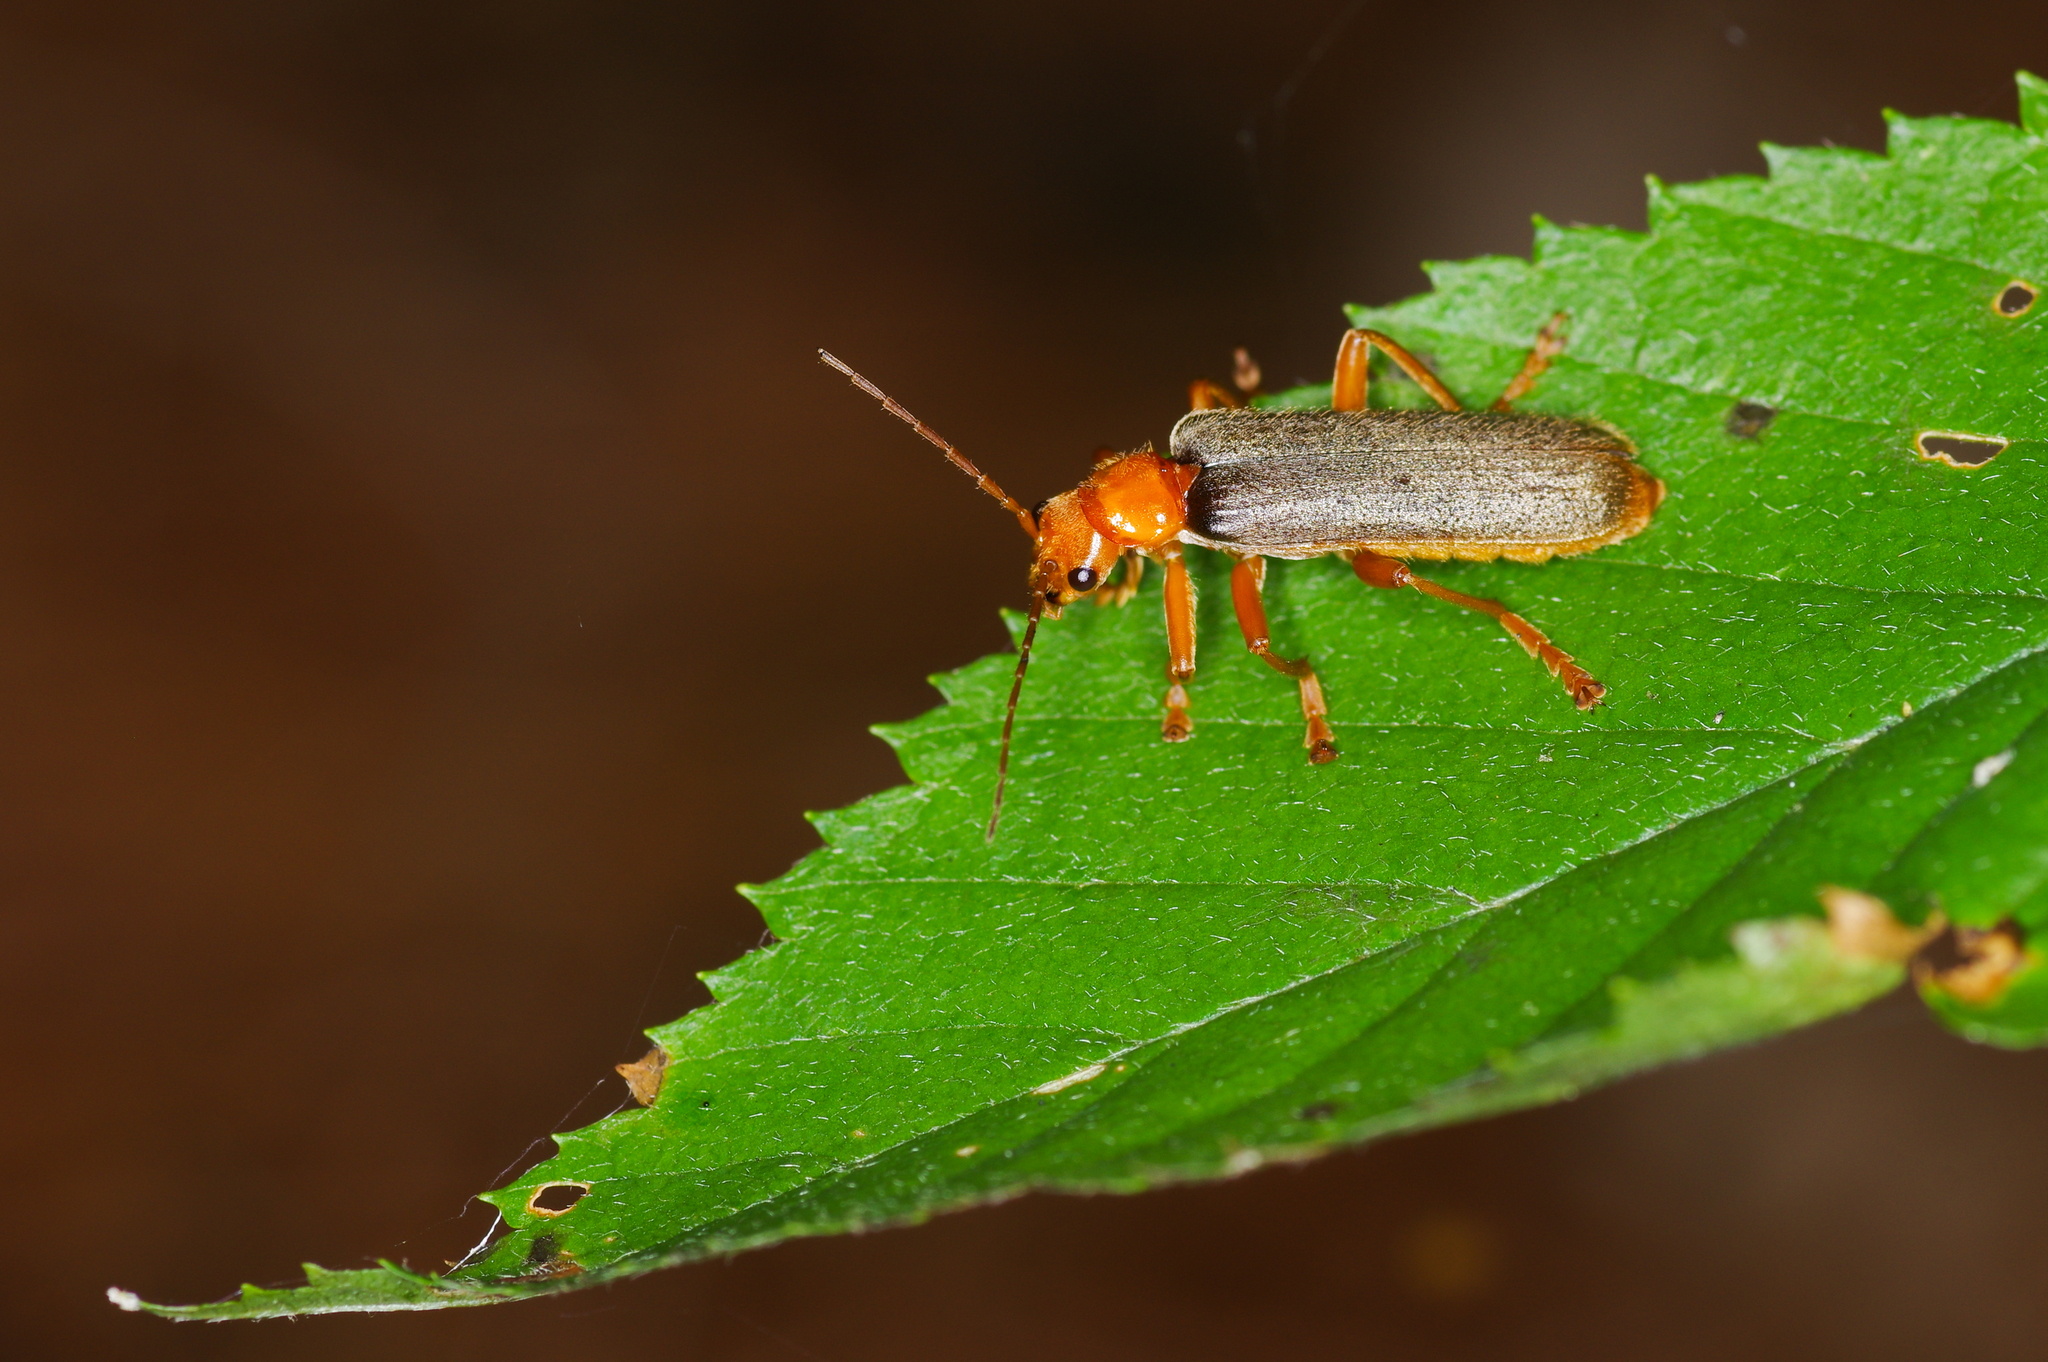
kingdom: Animalia
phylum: Arthropoda
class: Insecta
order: Coleoptera
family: Cantharidae
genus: Pacificanthia
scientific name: Pacificanthia rotundicollis
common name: Brown leatherwing beetle
